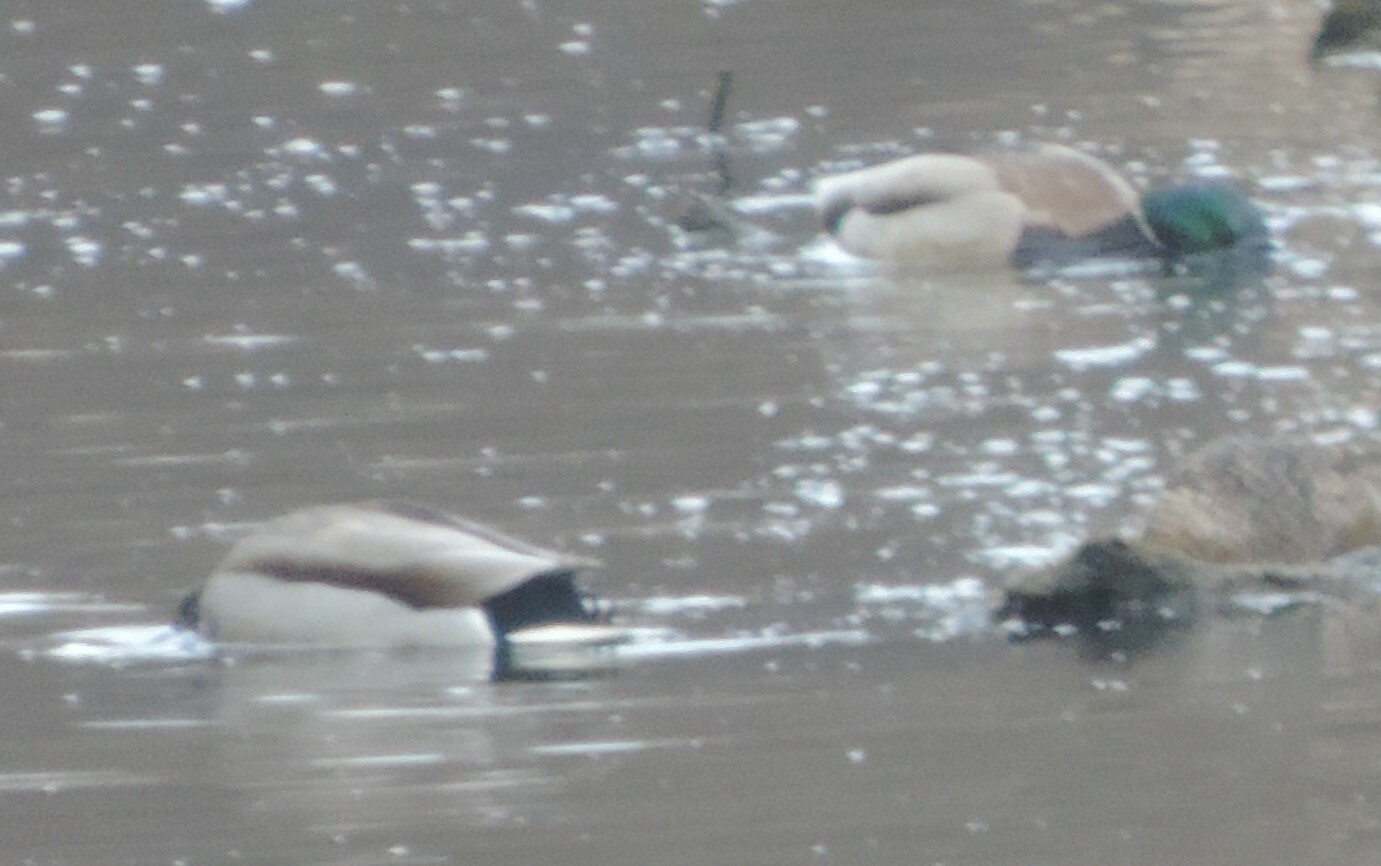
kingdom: Animalia
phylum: Chordata
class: Aves
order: Anseriformes
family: Anatidae
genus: Anas
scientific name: Anas platyrhynchos
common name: Mallard
